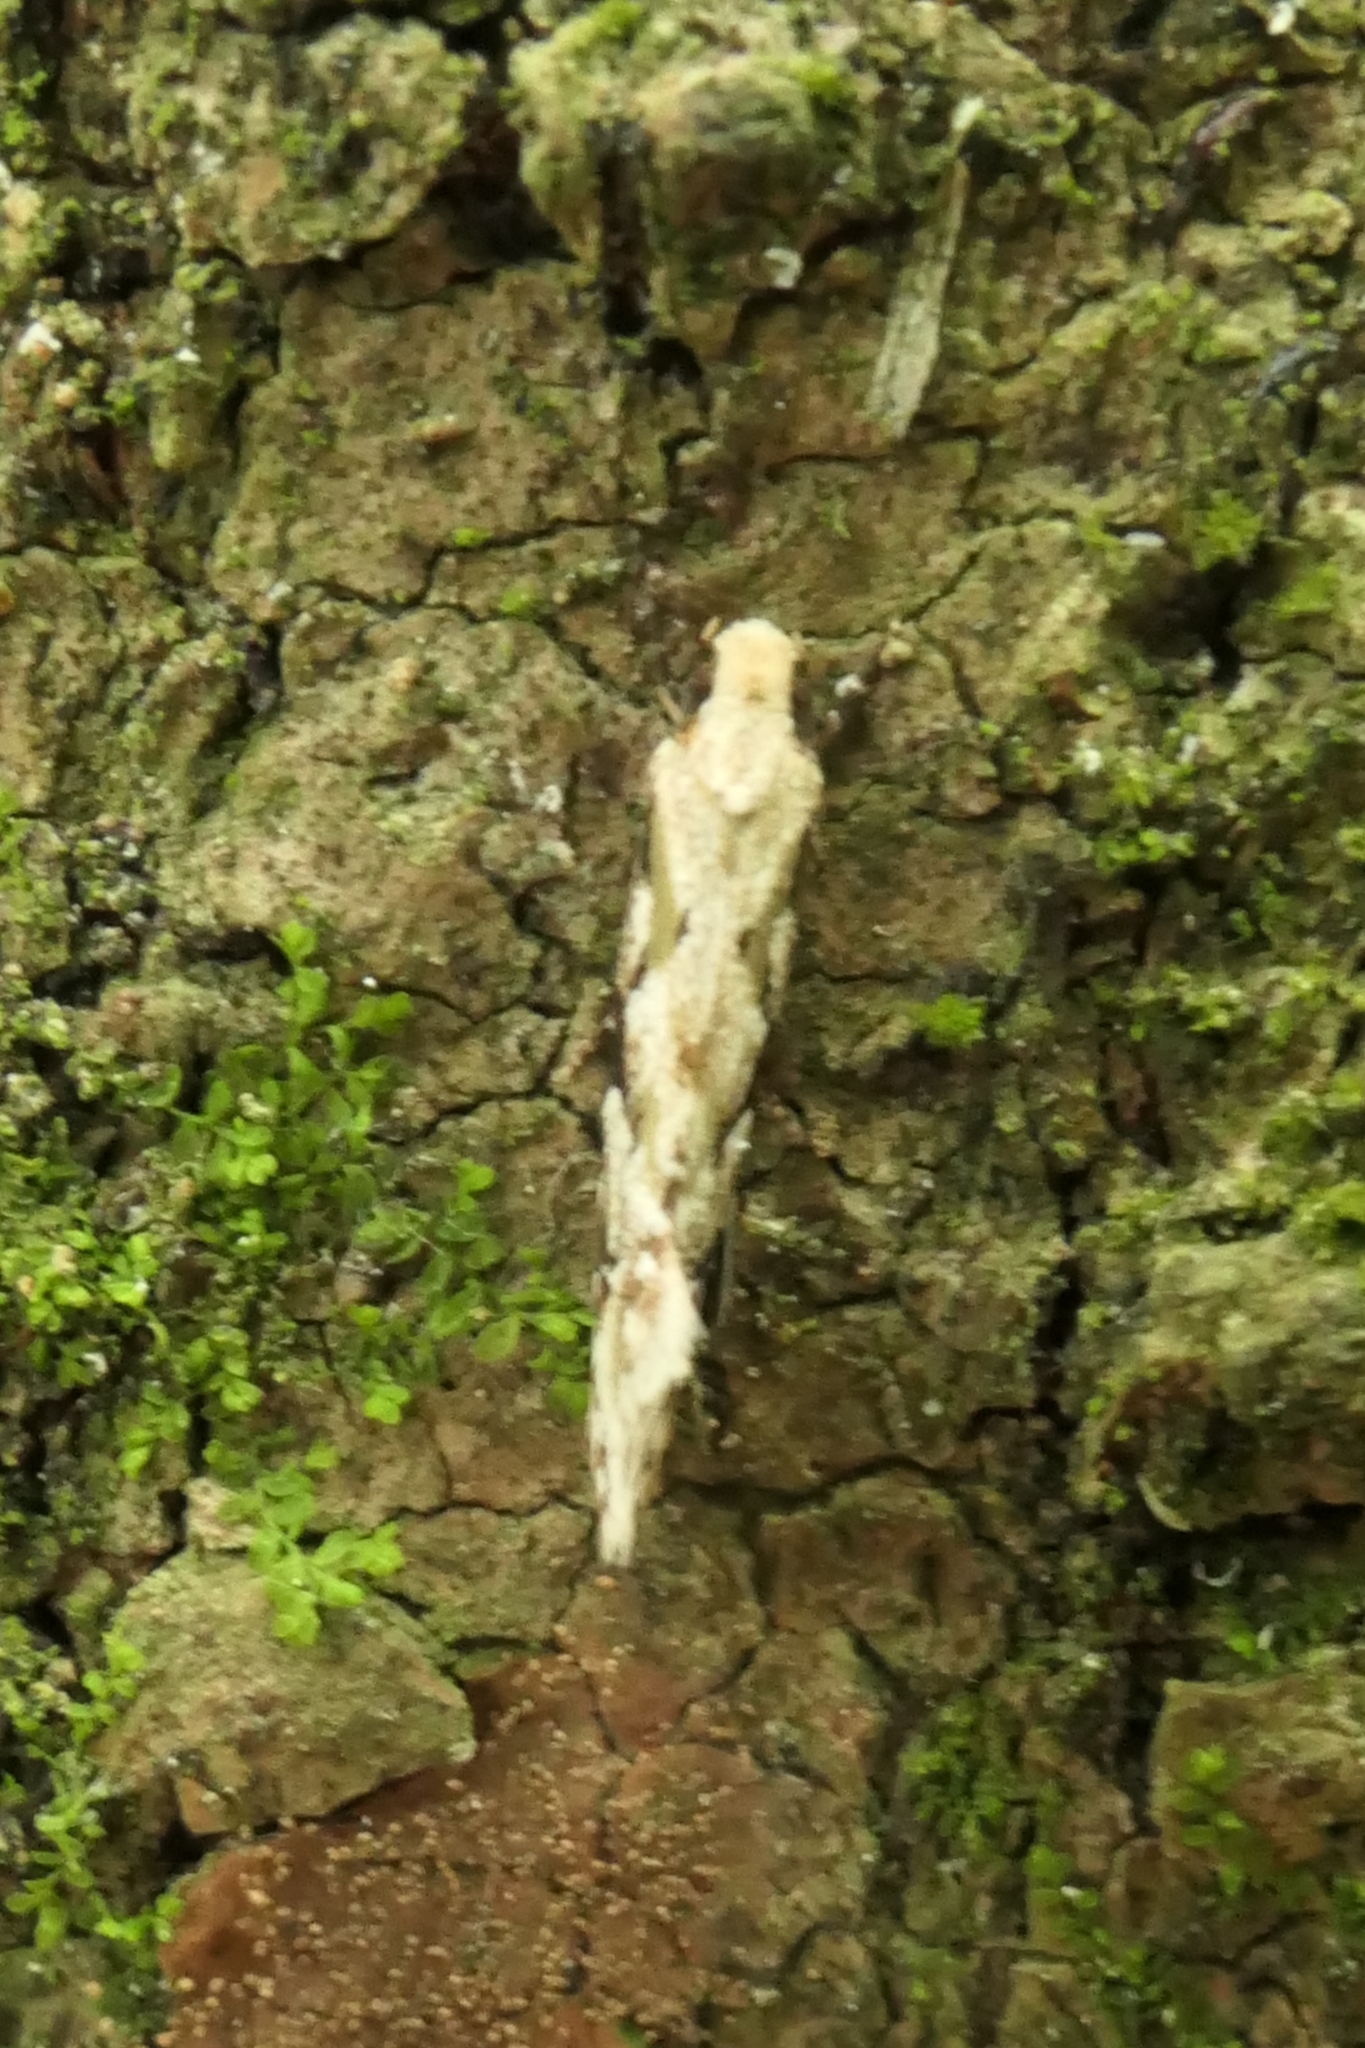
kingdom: Animalia
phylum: Arthropoda
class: Insecta
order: Lepidoptera
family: Tineidae
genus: Crypsitricha
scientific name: Crypsitricha mesotypa
